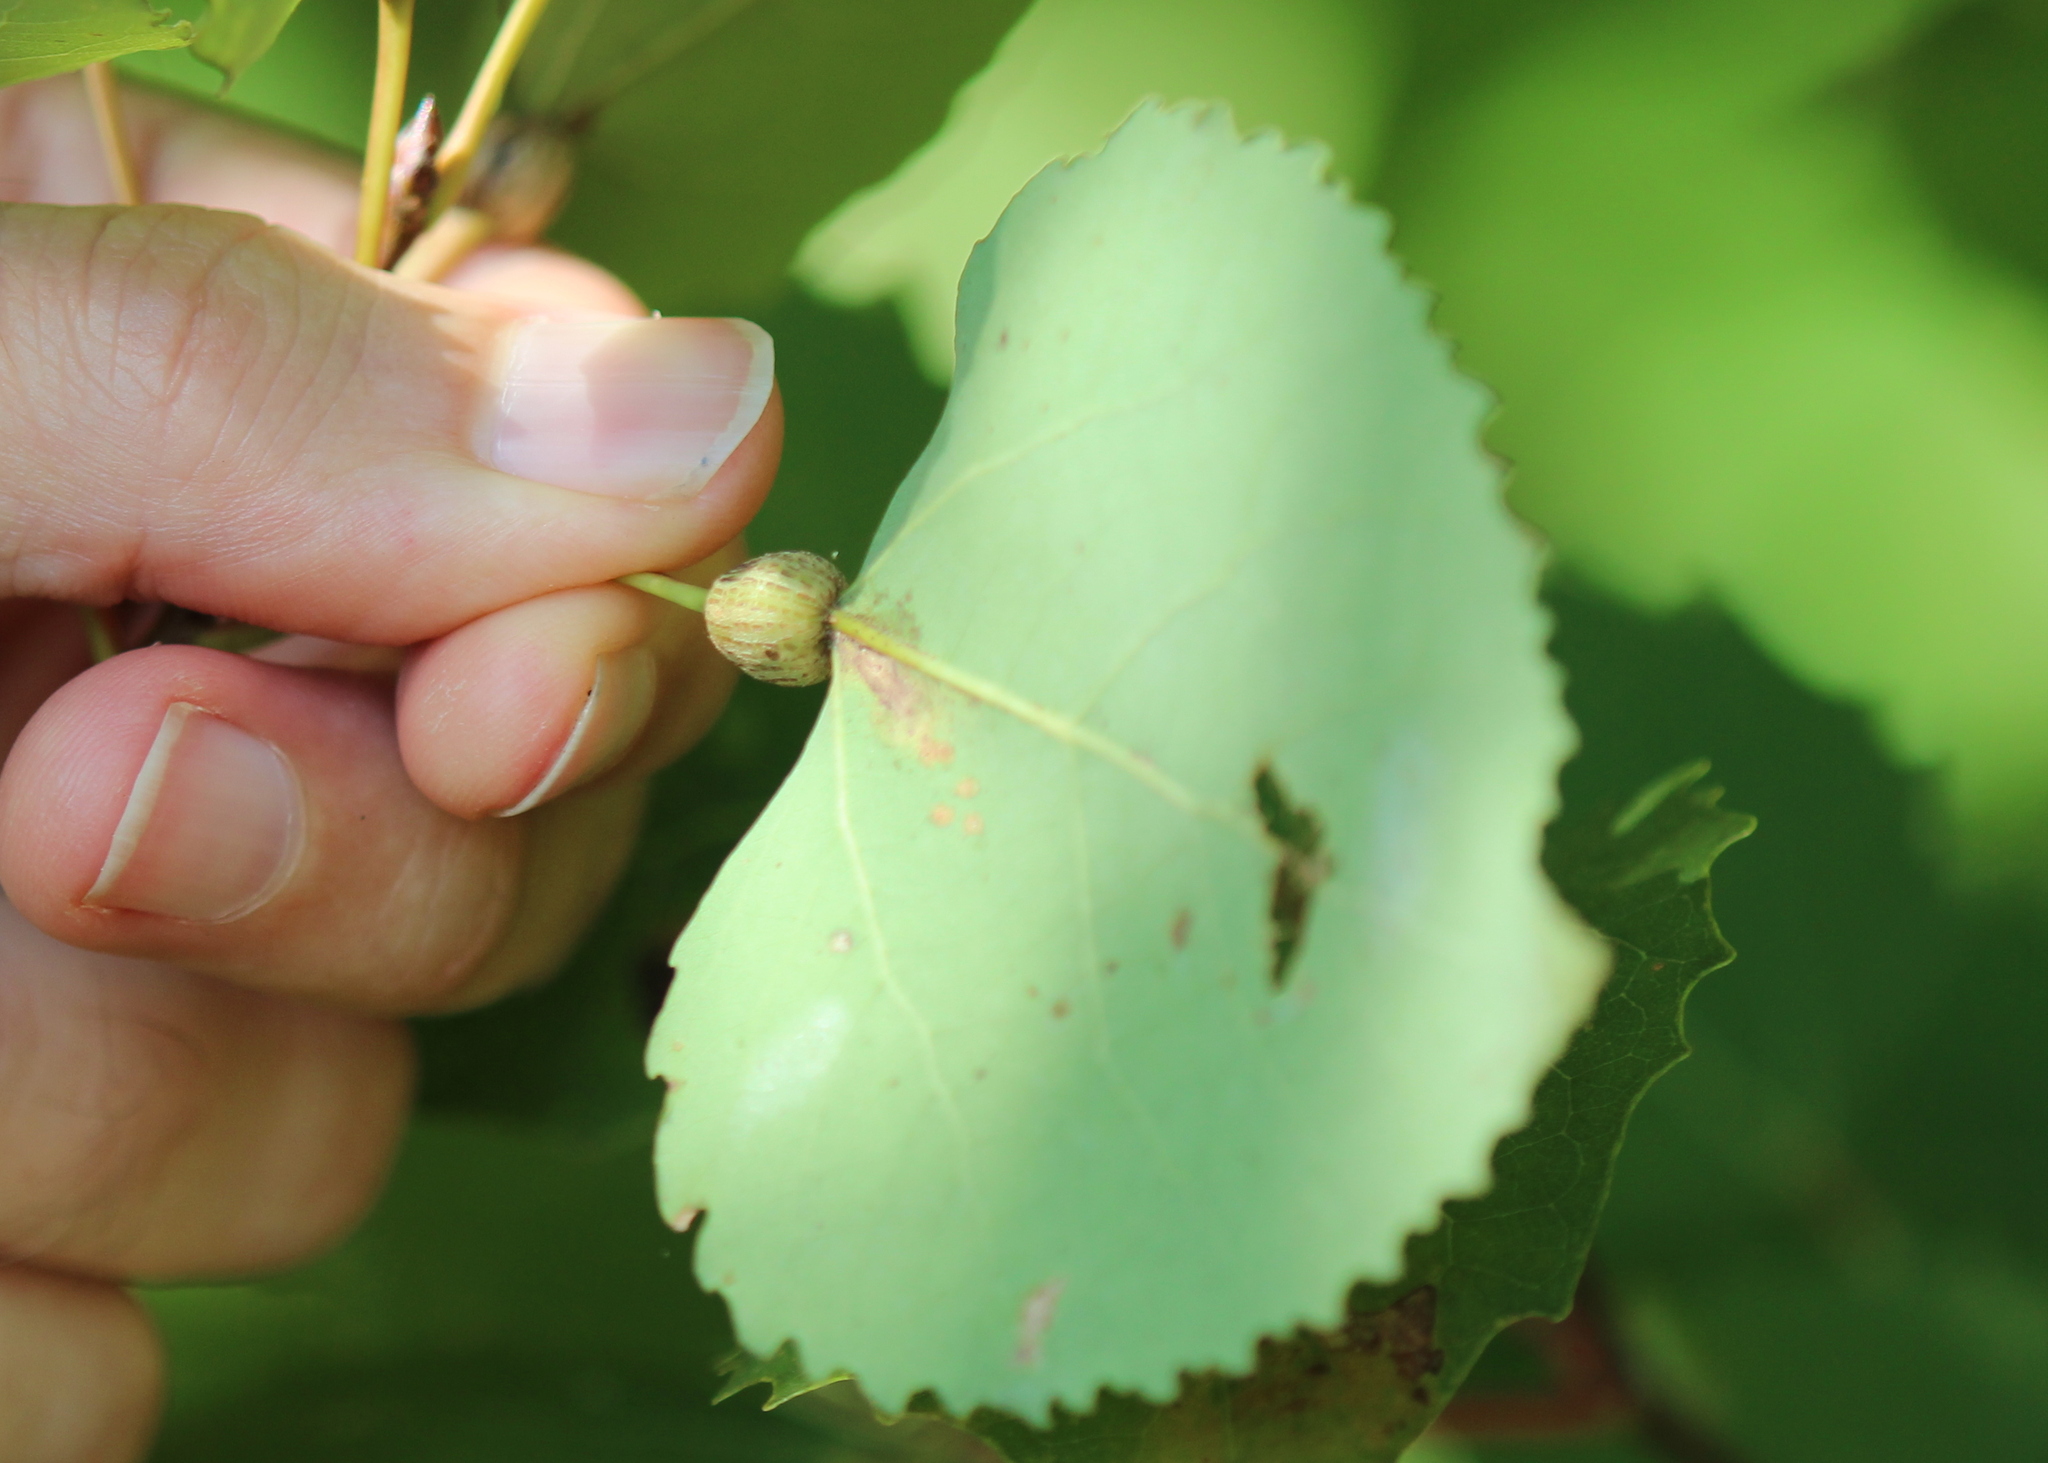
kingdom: Animalia
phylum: Arthropoda
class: Insecta
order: Lepidoptera
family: Nepticulidae
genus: Ectoedemia
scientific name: Ectoedemia populella
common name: Aspen petiole gall moth
